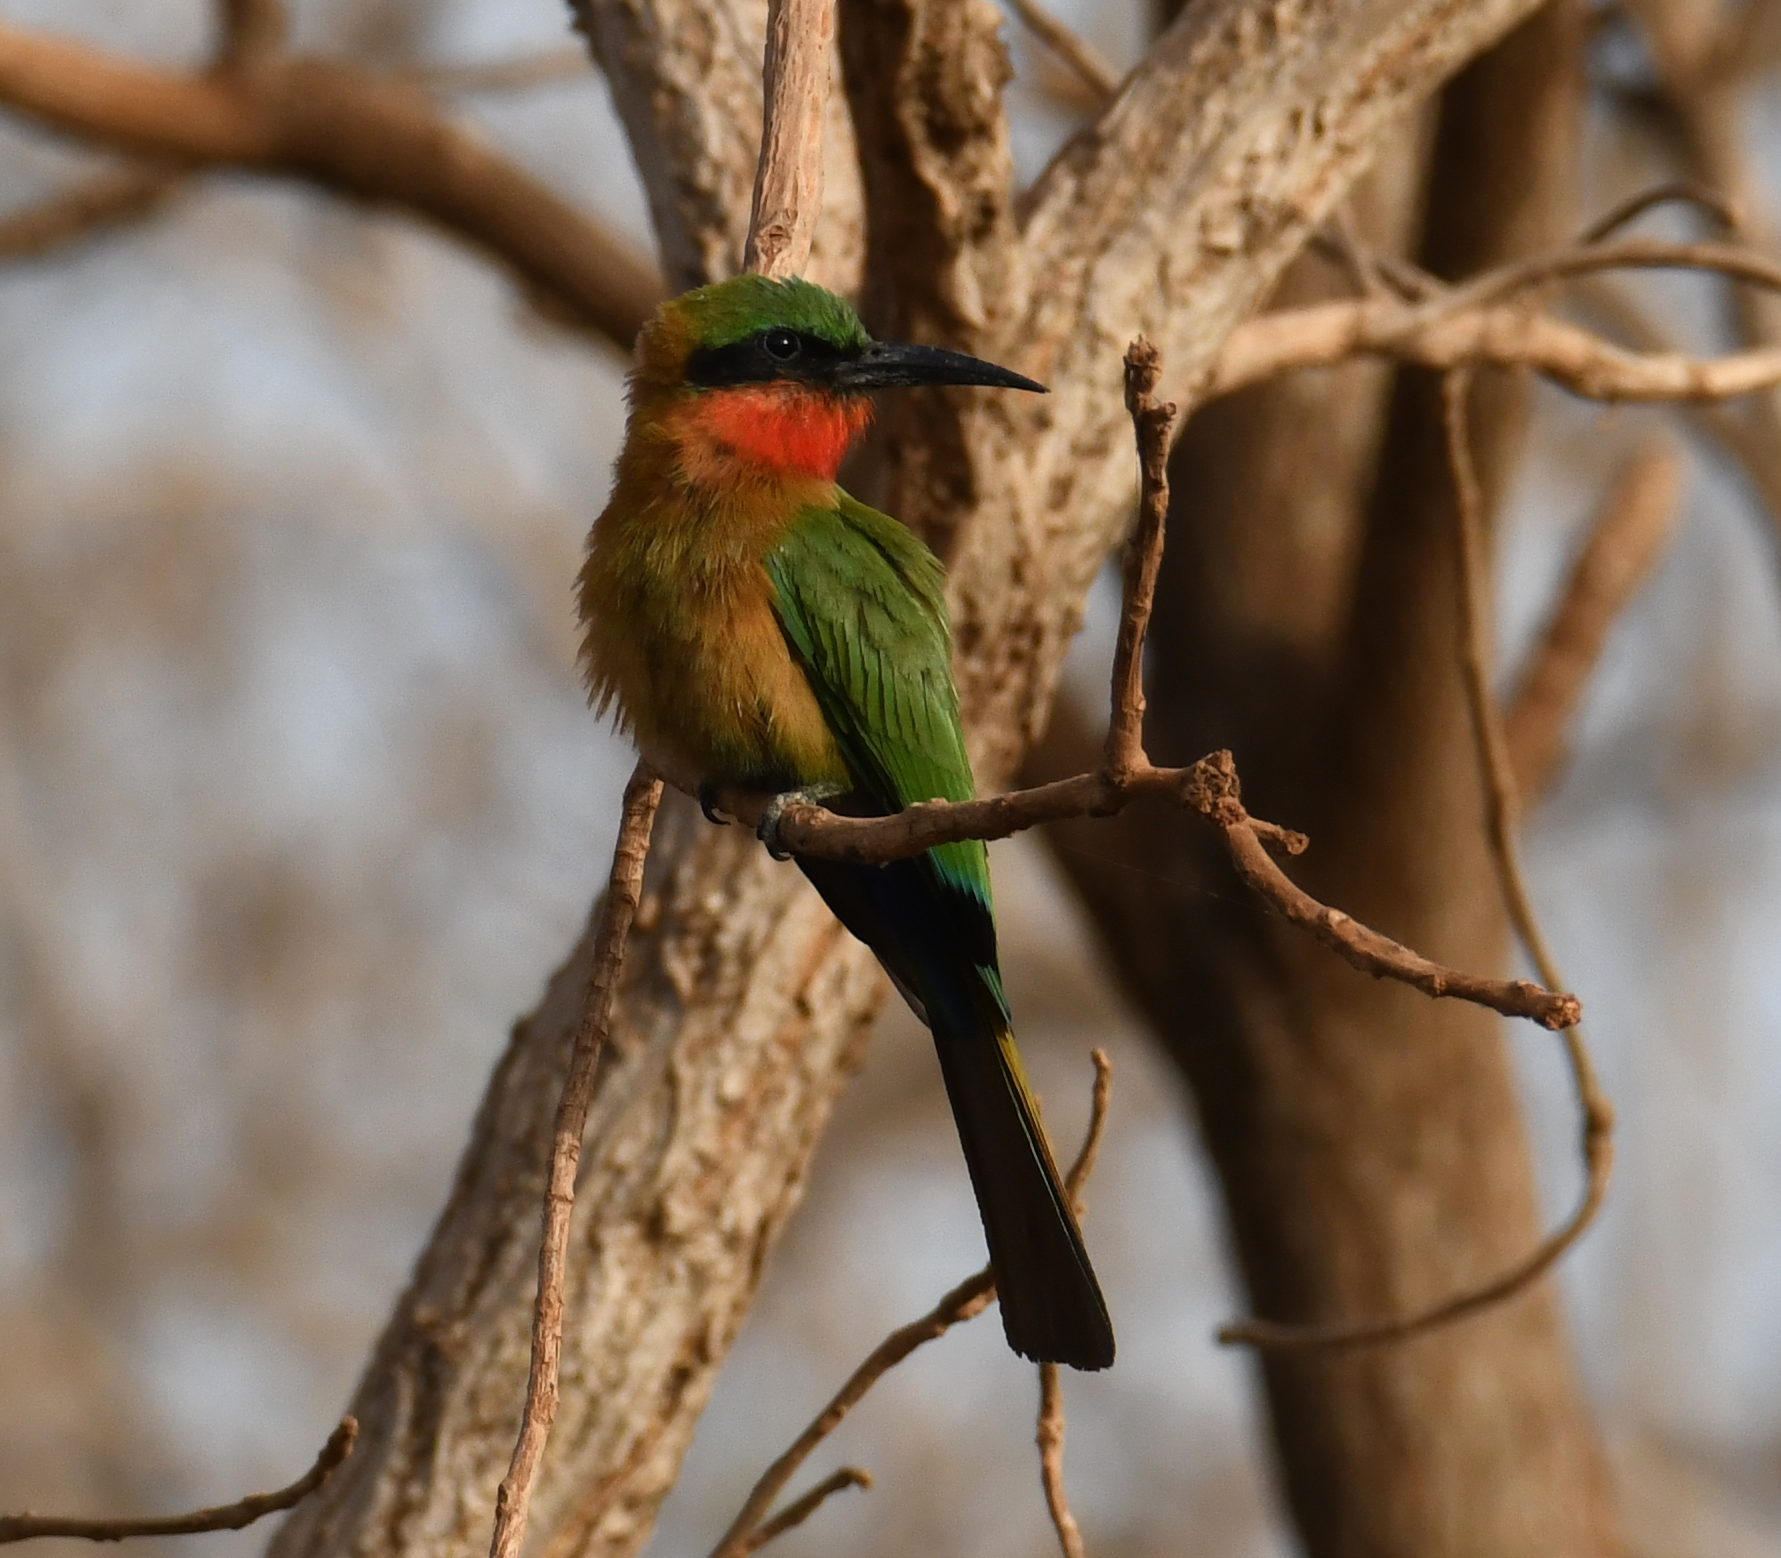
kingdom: Animalia
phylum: Chordata
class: Aves
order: Coraciiformes
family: Meropidae
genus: Merops
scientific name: Merops bulocki
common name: Red-throated bee-eater
